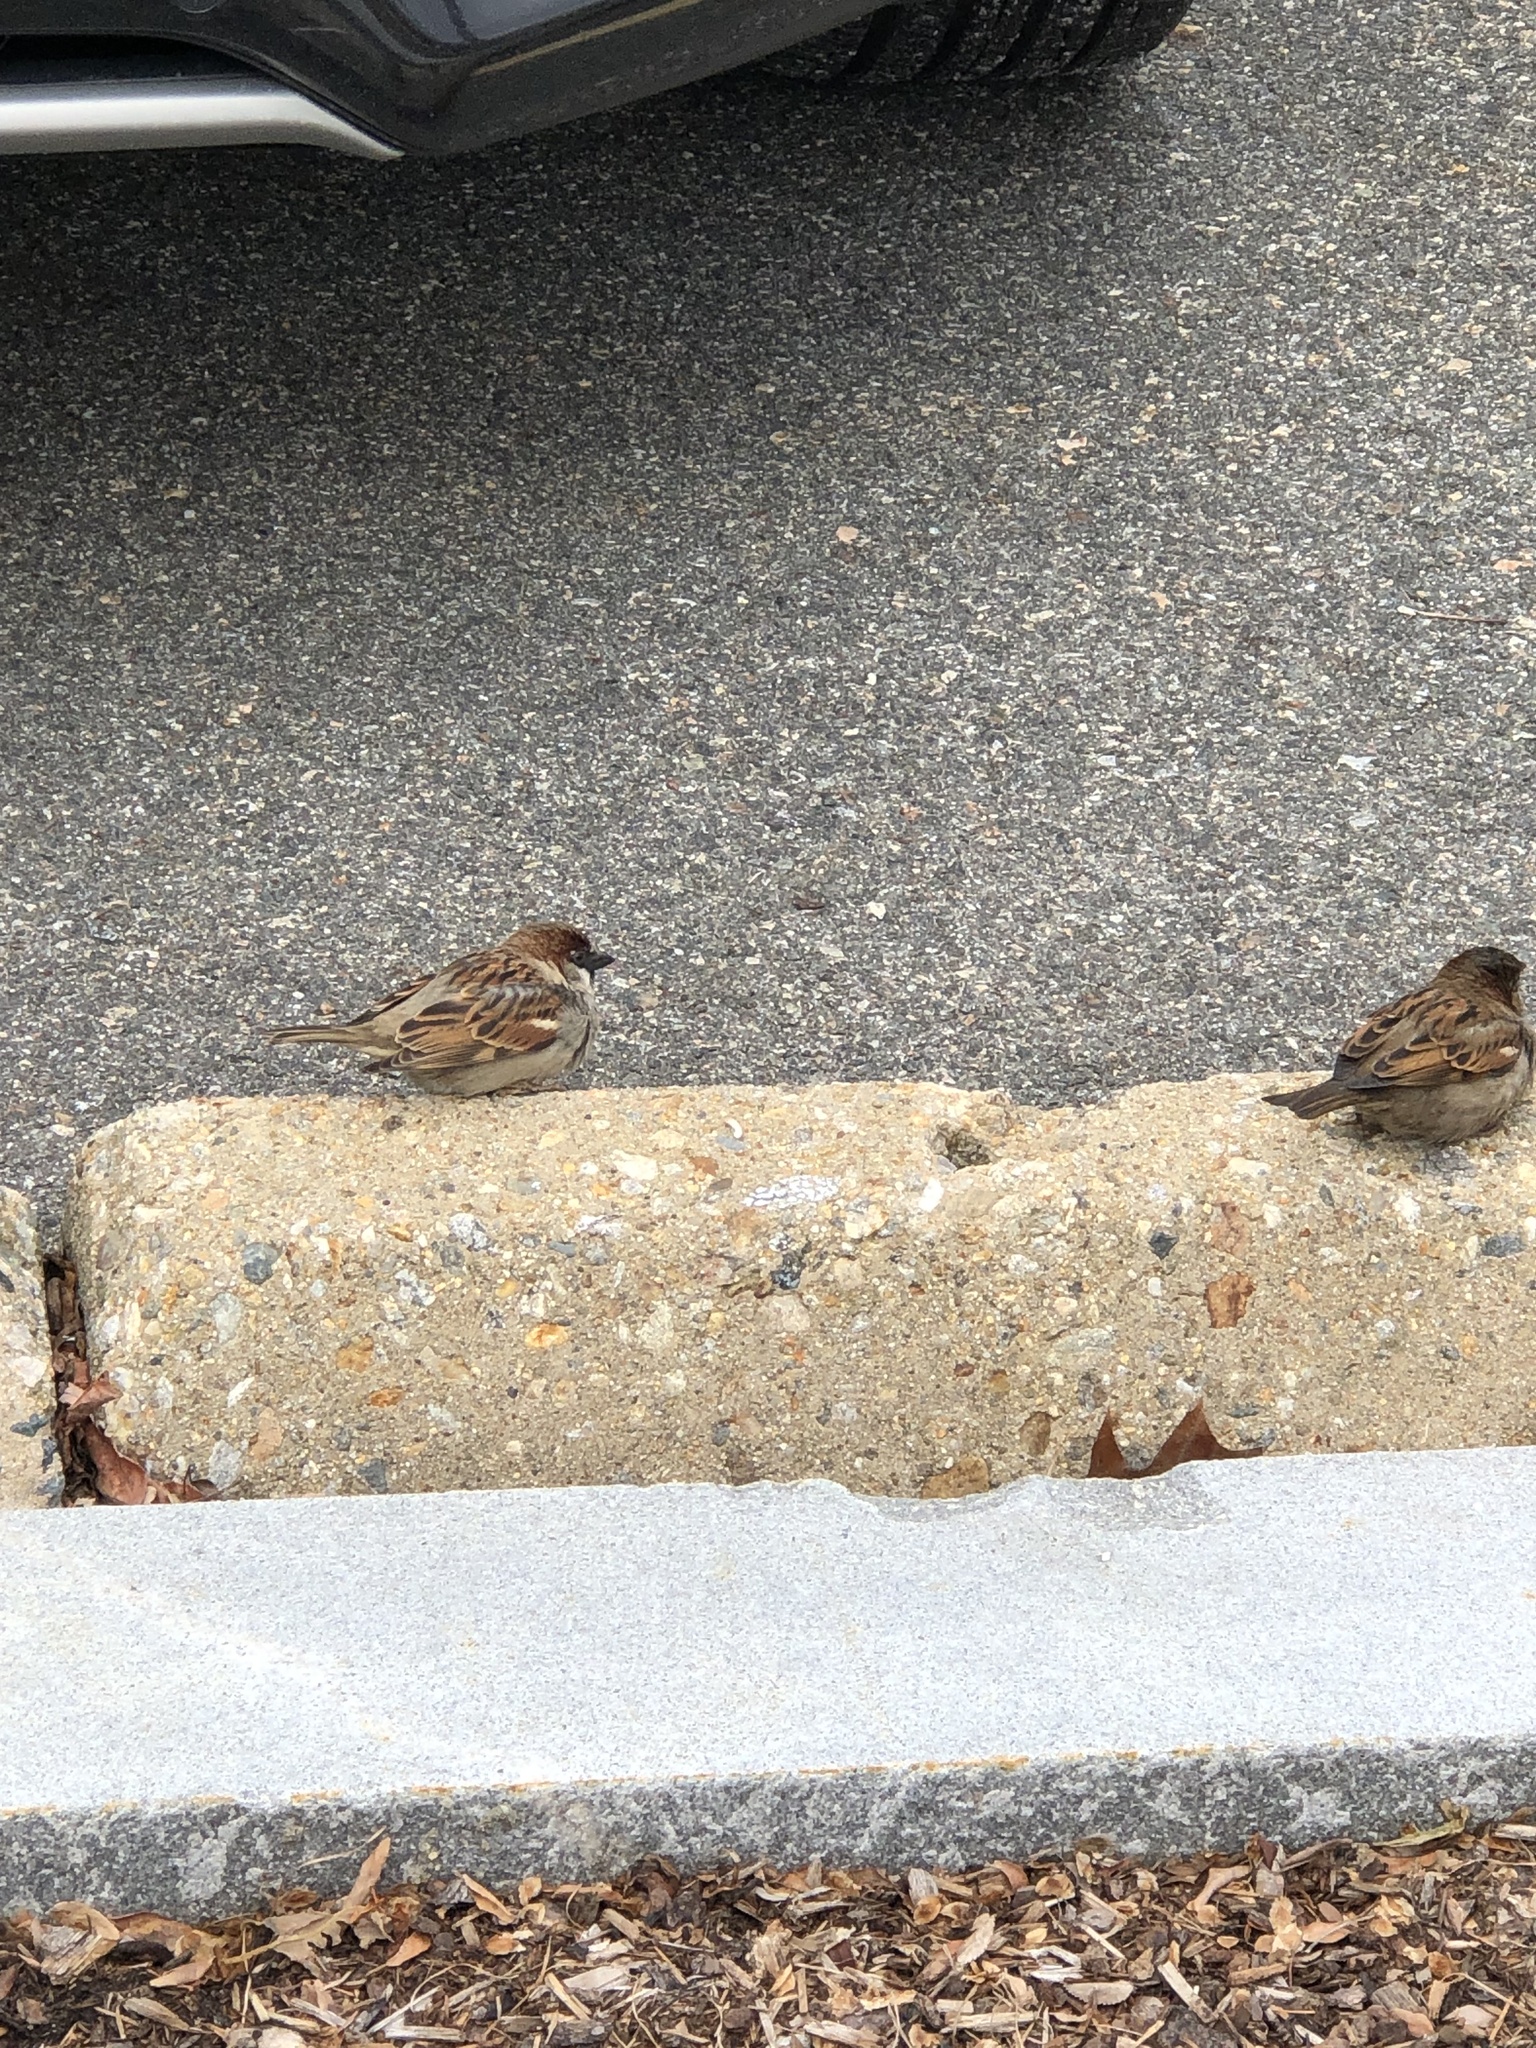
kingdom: Animalia
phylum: Chordata
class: Aves
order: Passeriformes
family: Passeridae
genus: Passer
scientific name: Passer domesticus
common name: House sparrow
